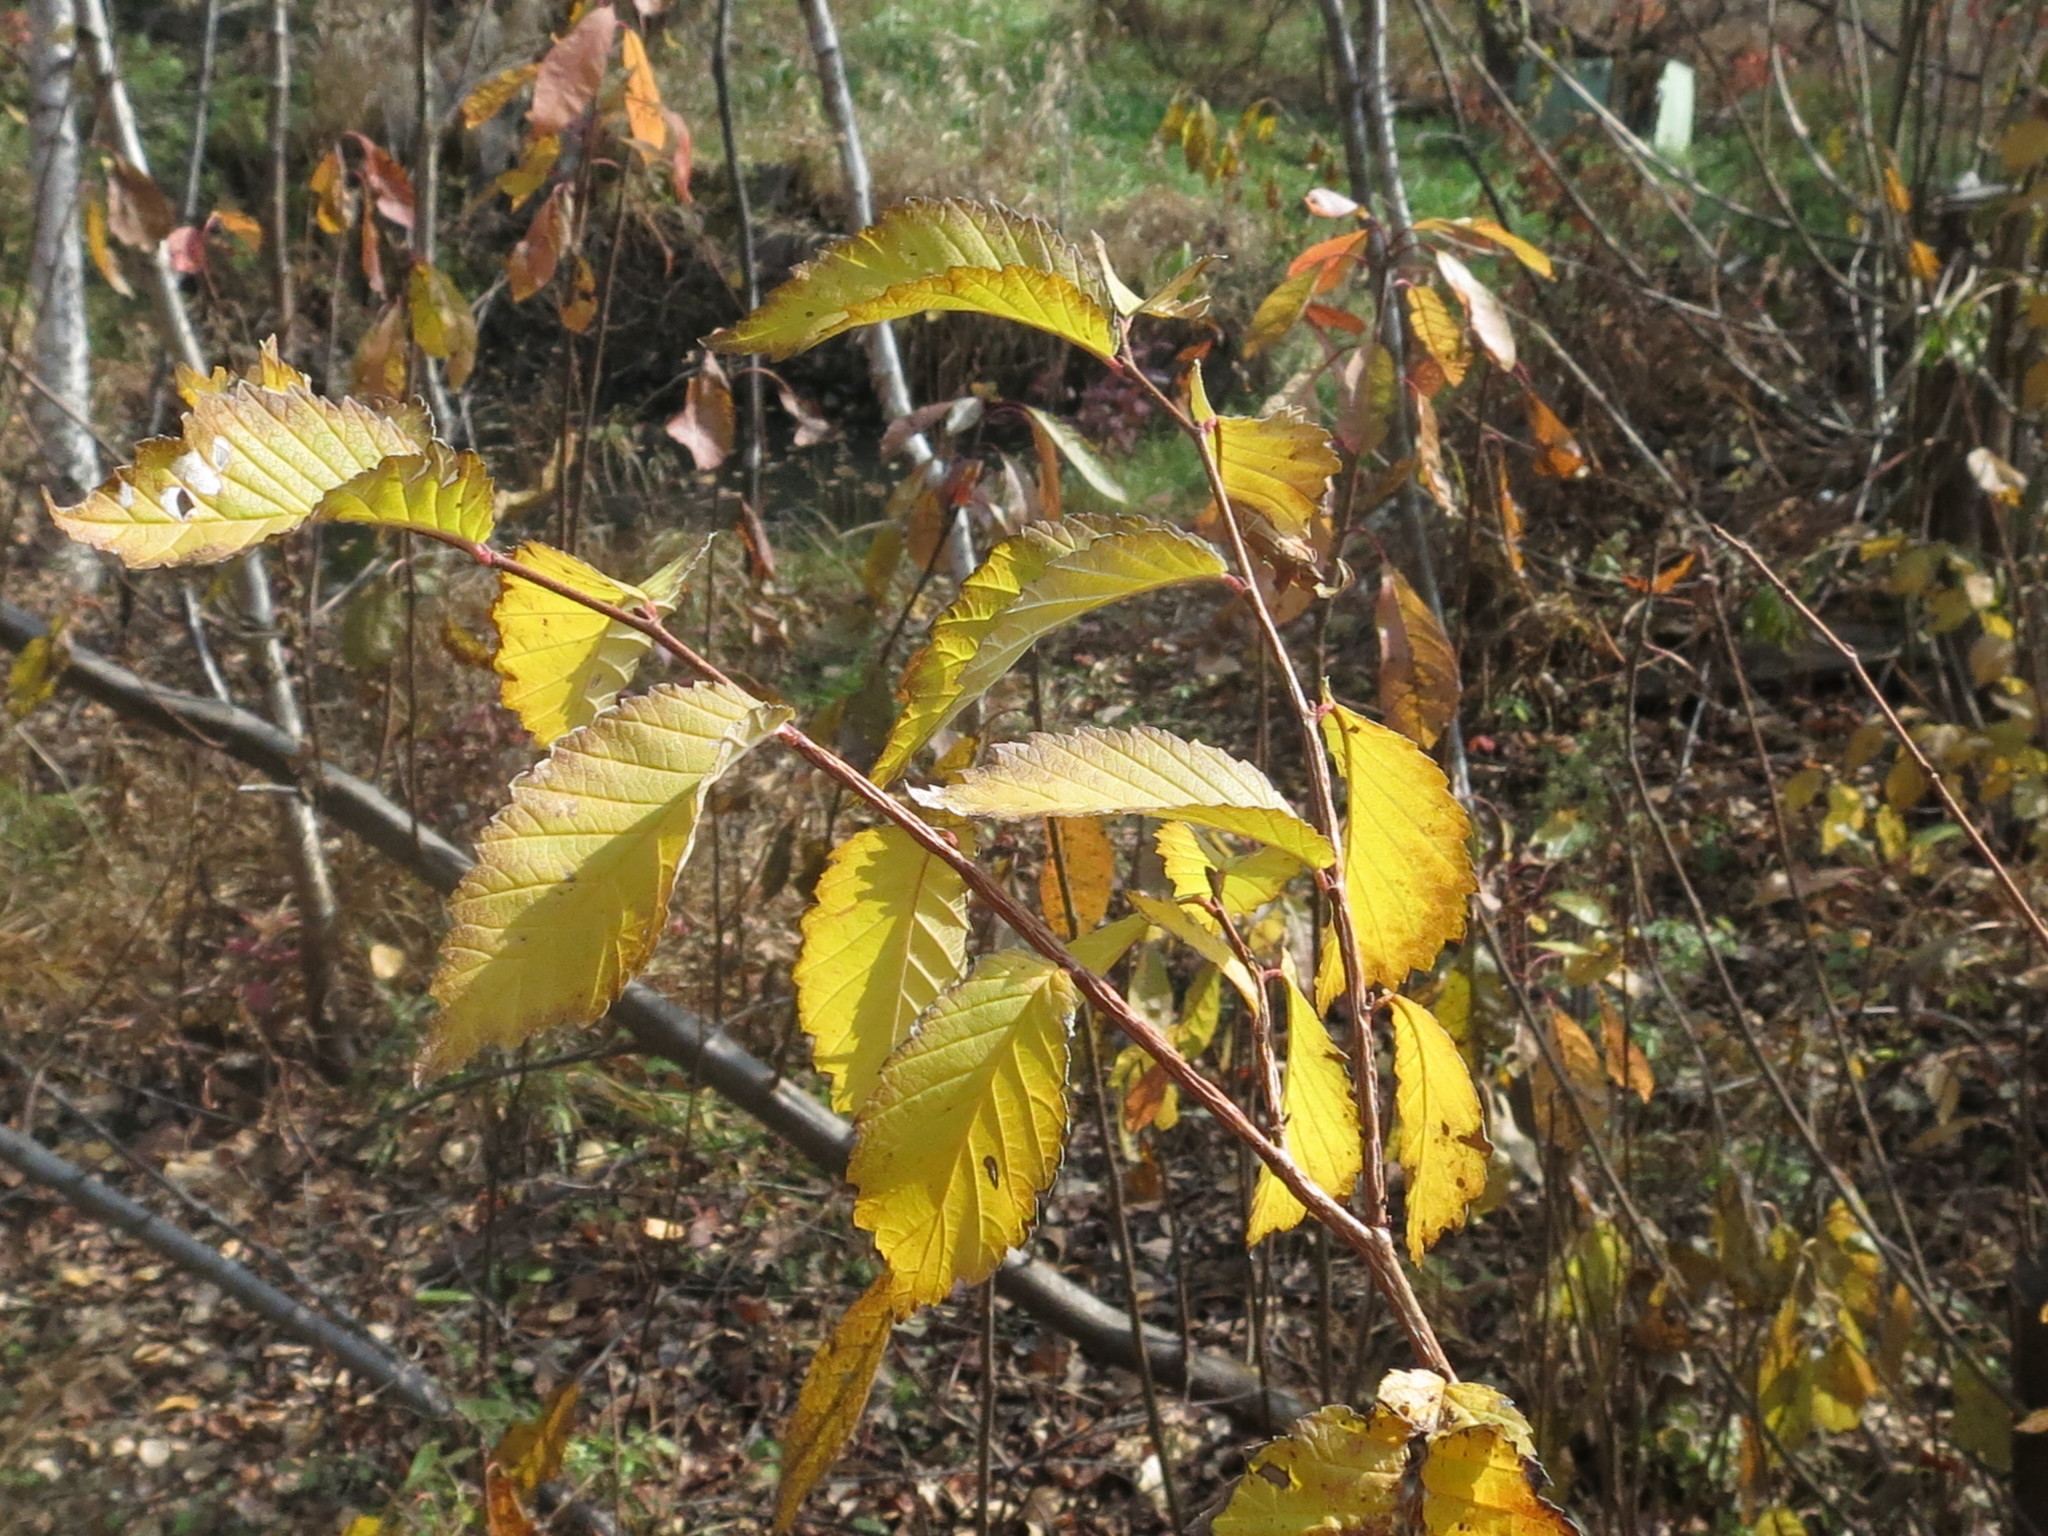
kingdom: Plantae
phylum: Tracheophyta
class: Magnoliopsida
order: Rosales
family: Ulmaceae
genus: Ulmus
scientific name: Ulmus davidiana
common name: Japanese elm
